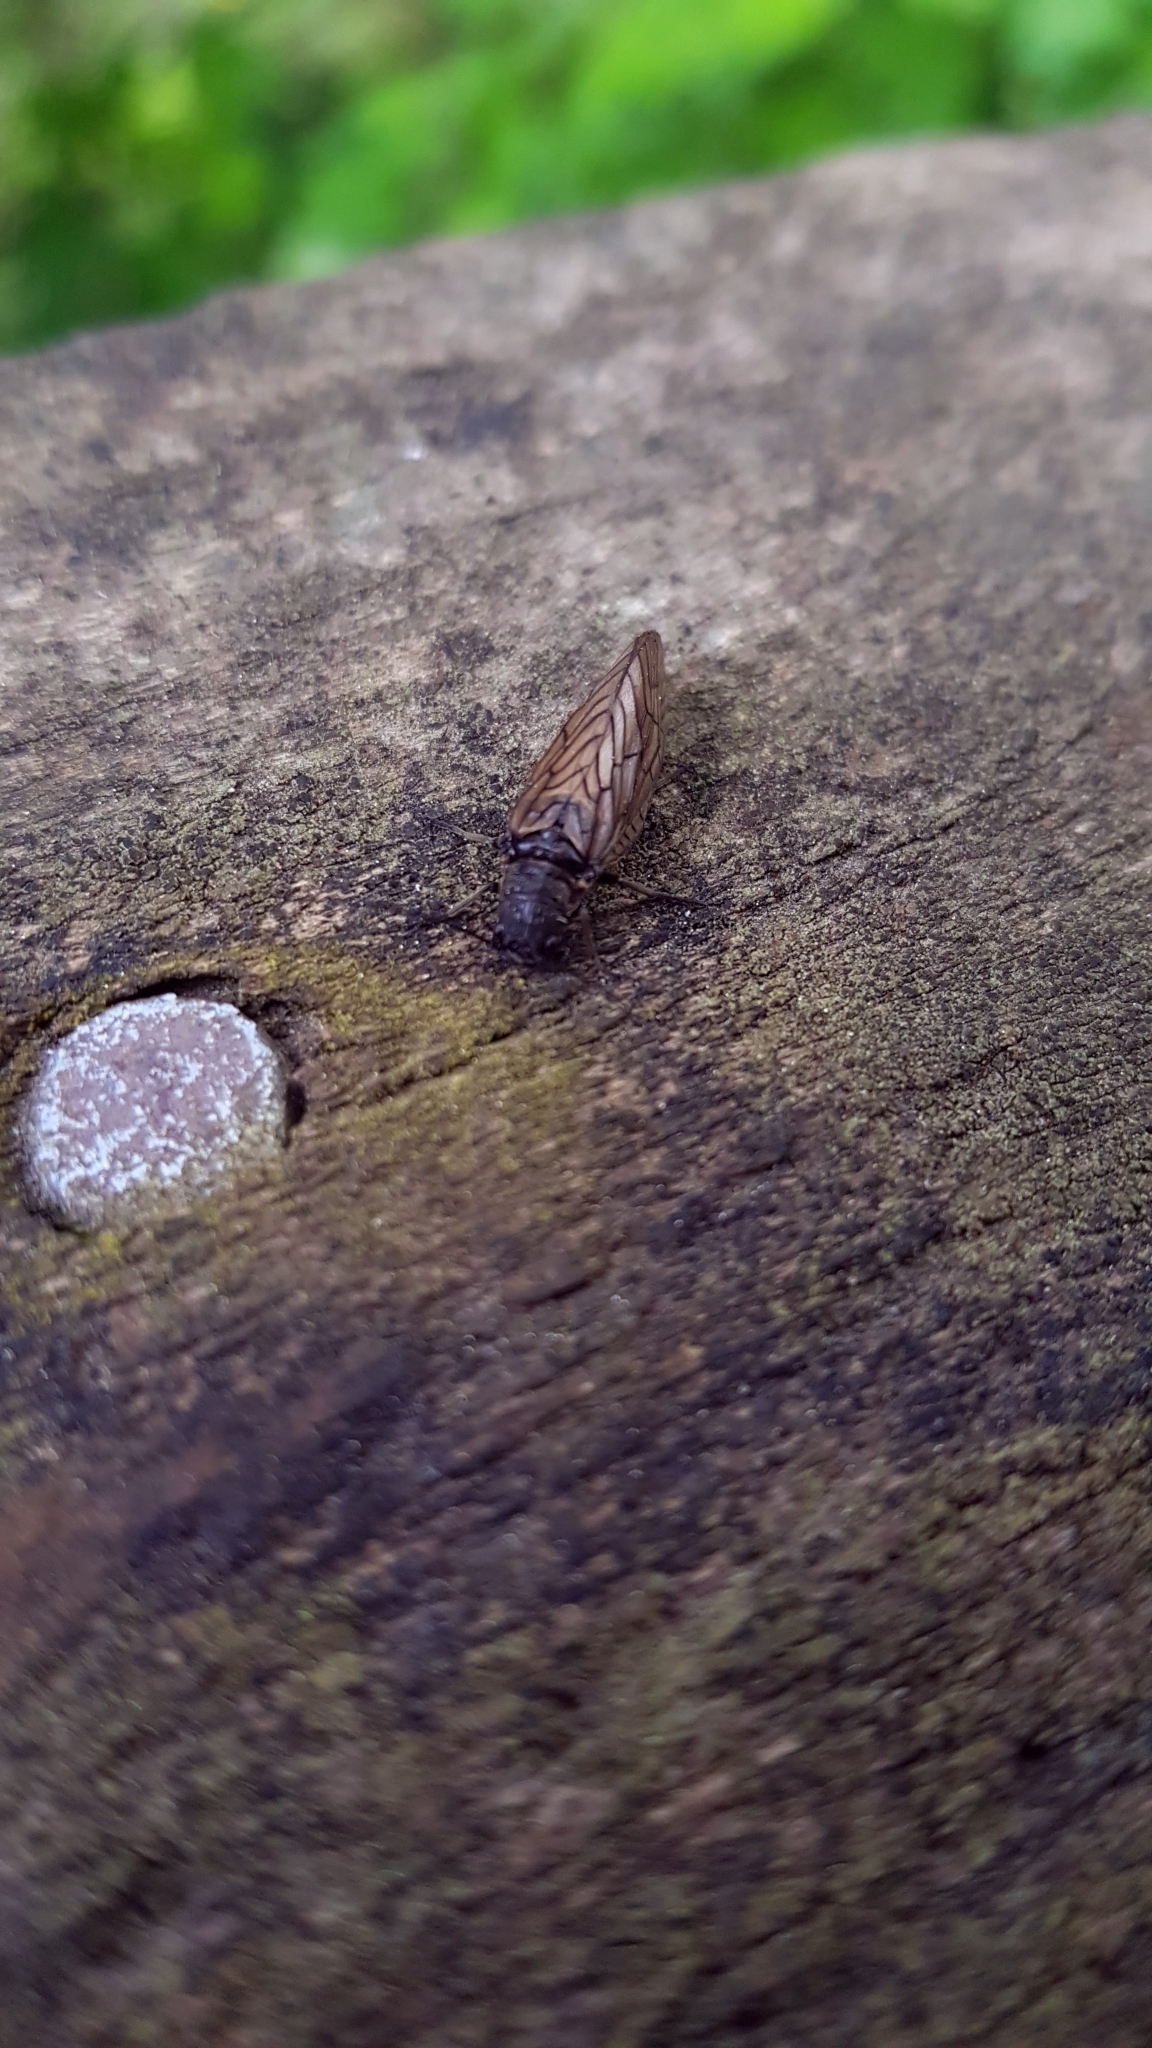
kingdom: Animalia
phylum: Arthropoda
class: Insecta
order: Megaloptera
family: Sialidae
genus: Sialis
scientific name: Sialis
